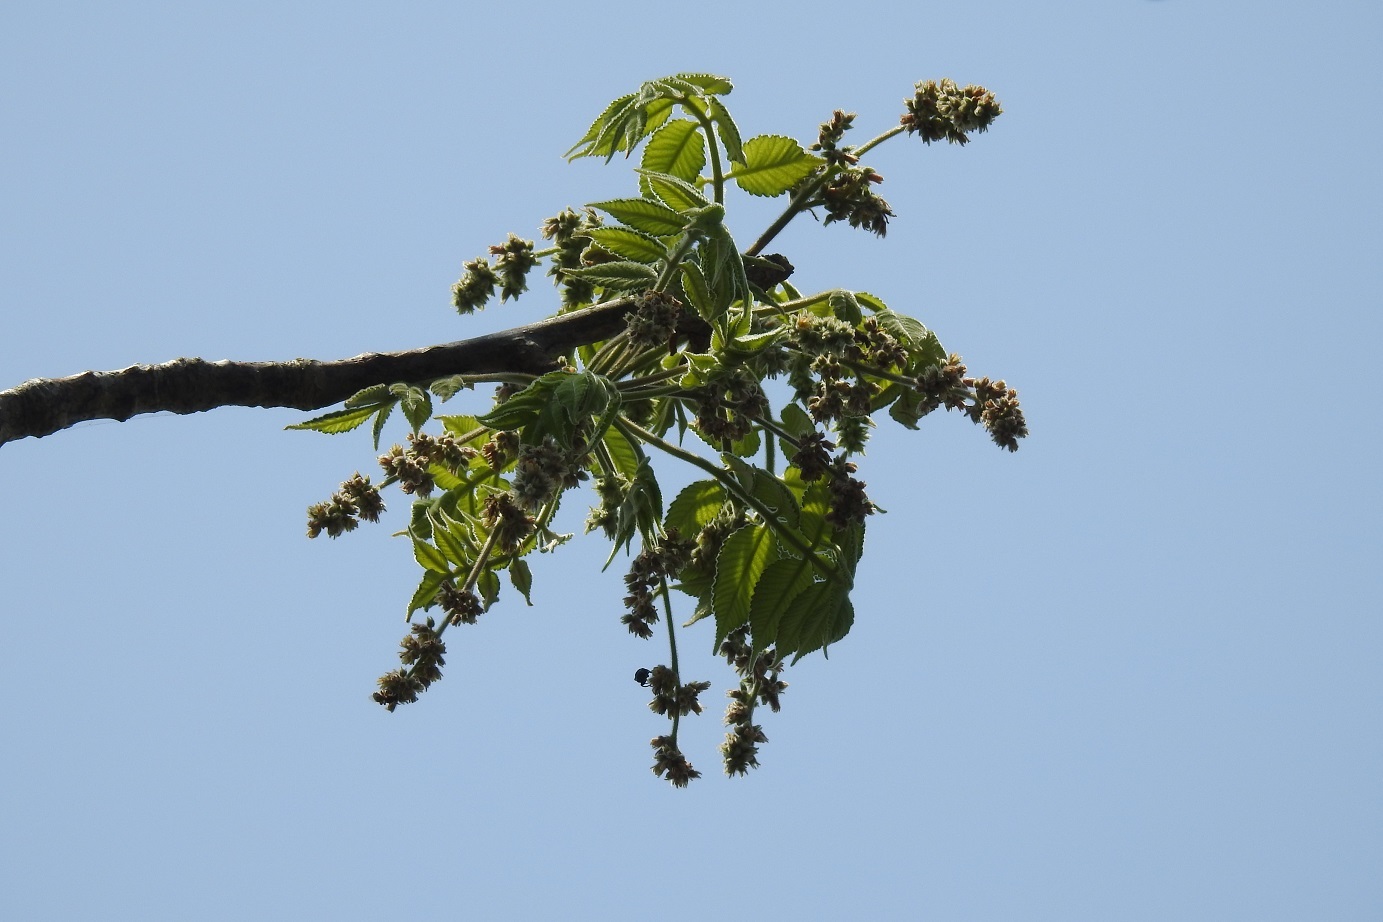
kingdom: Plantae
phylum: Tracheophyta
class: Magnoliopsida
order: Sapindales
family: Burseraceae
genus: Bursera
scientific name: Bursera excelsa
